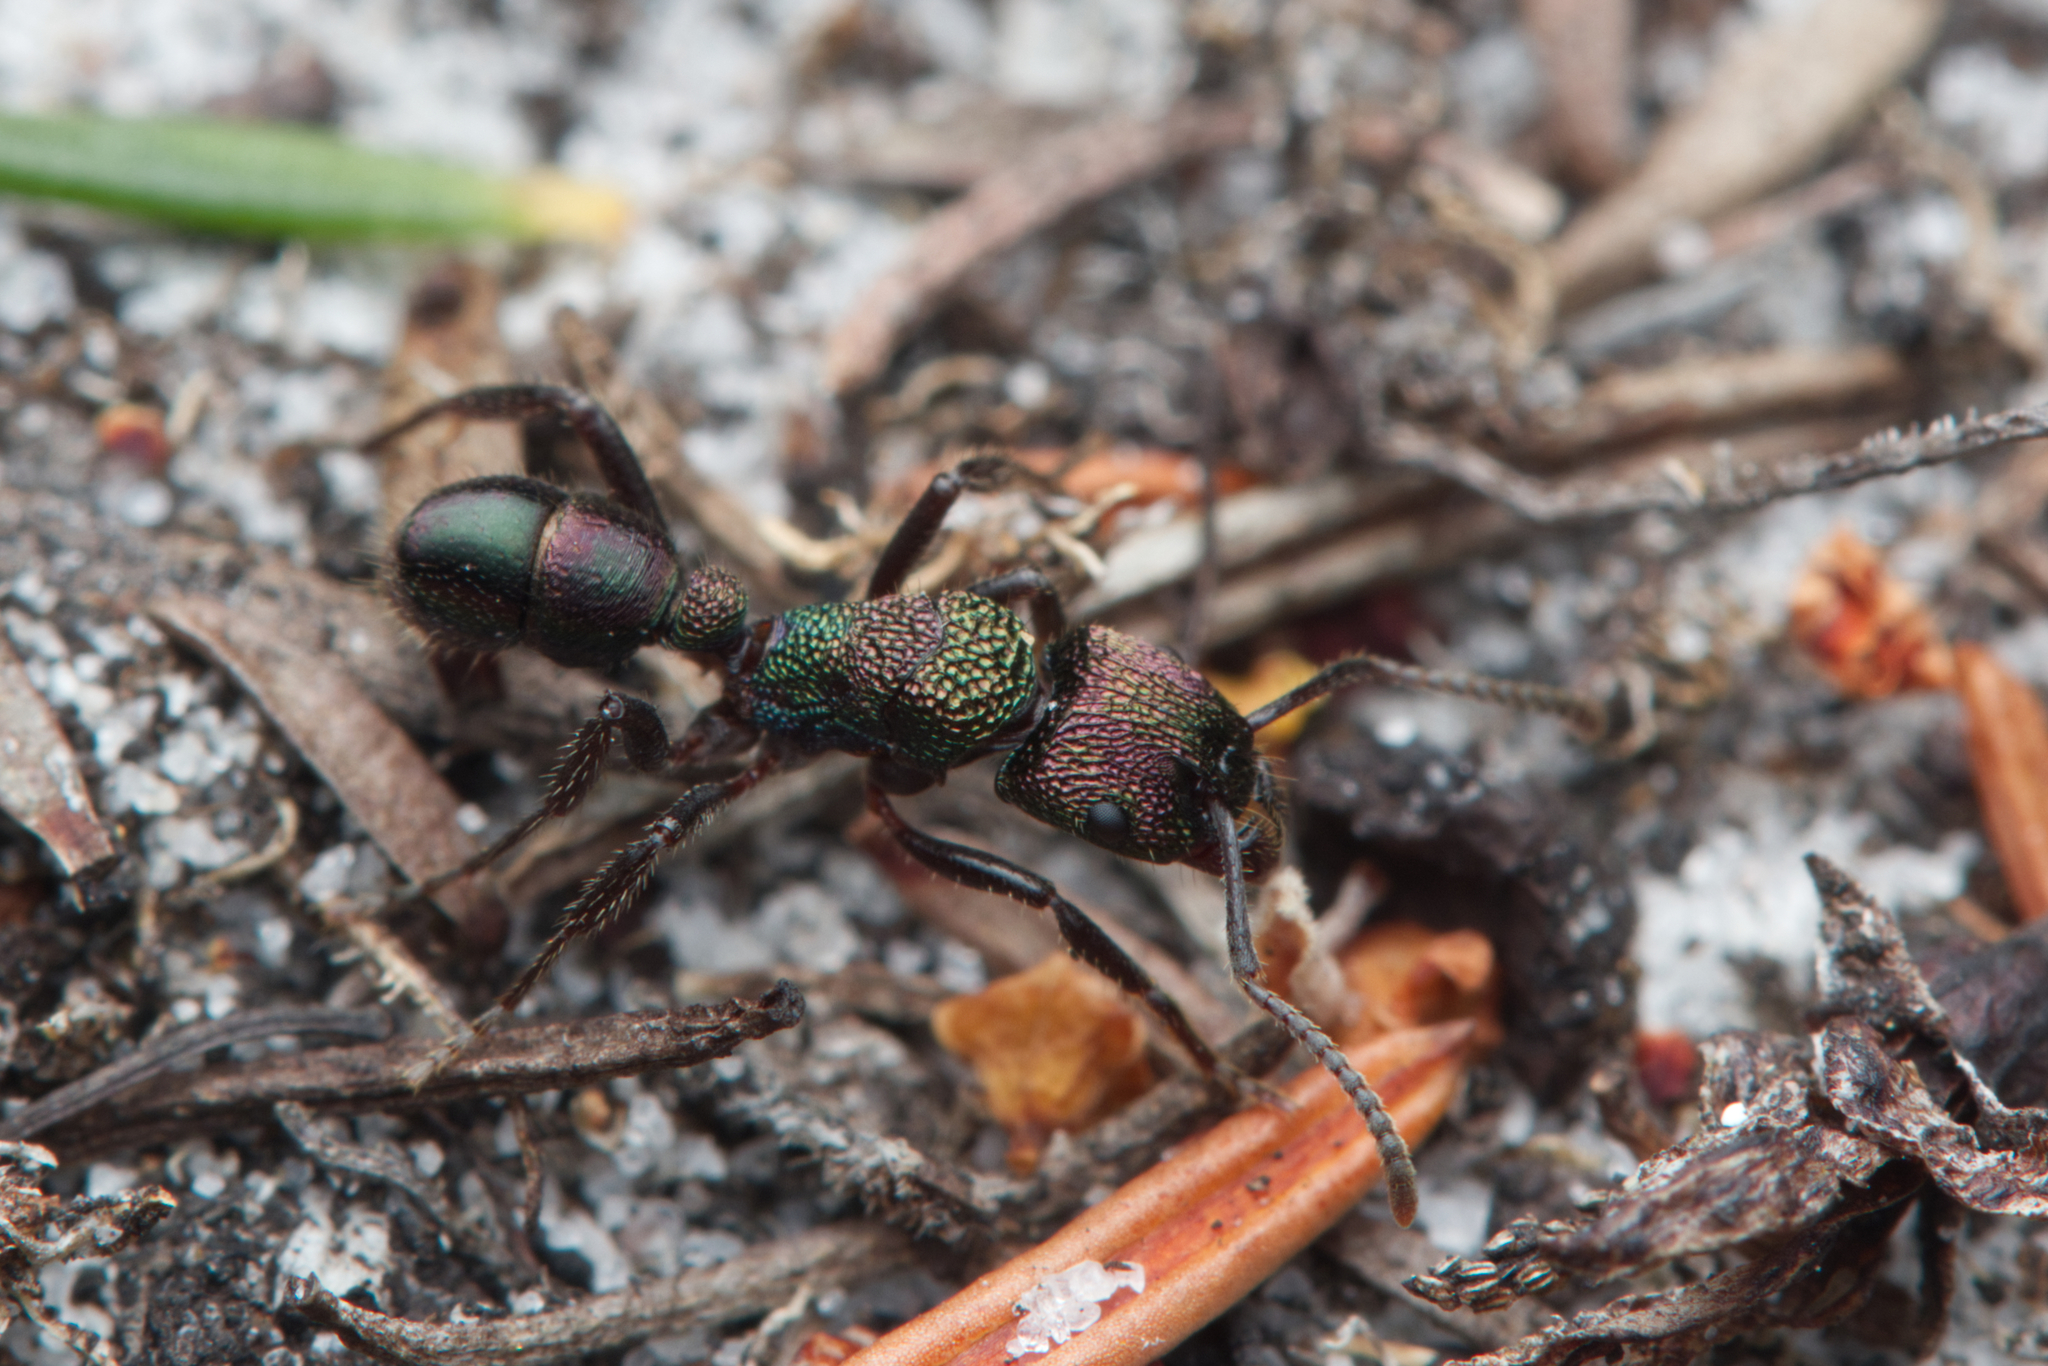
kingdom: Animalia
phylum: Arthropoda
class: Insecta
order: Hymenoptera
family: Formicidae
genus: Rhytidoponera
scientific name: Rhytidoponera metallica
